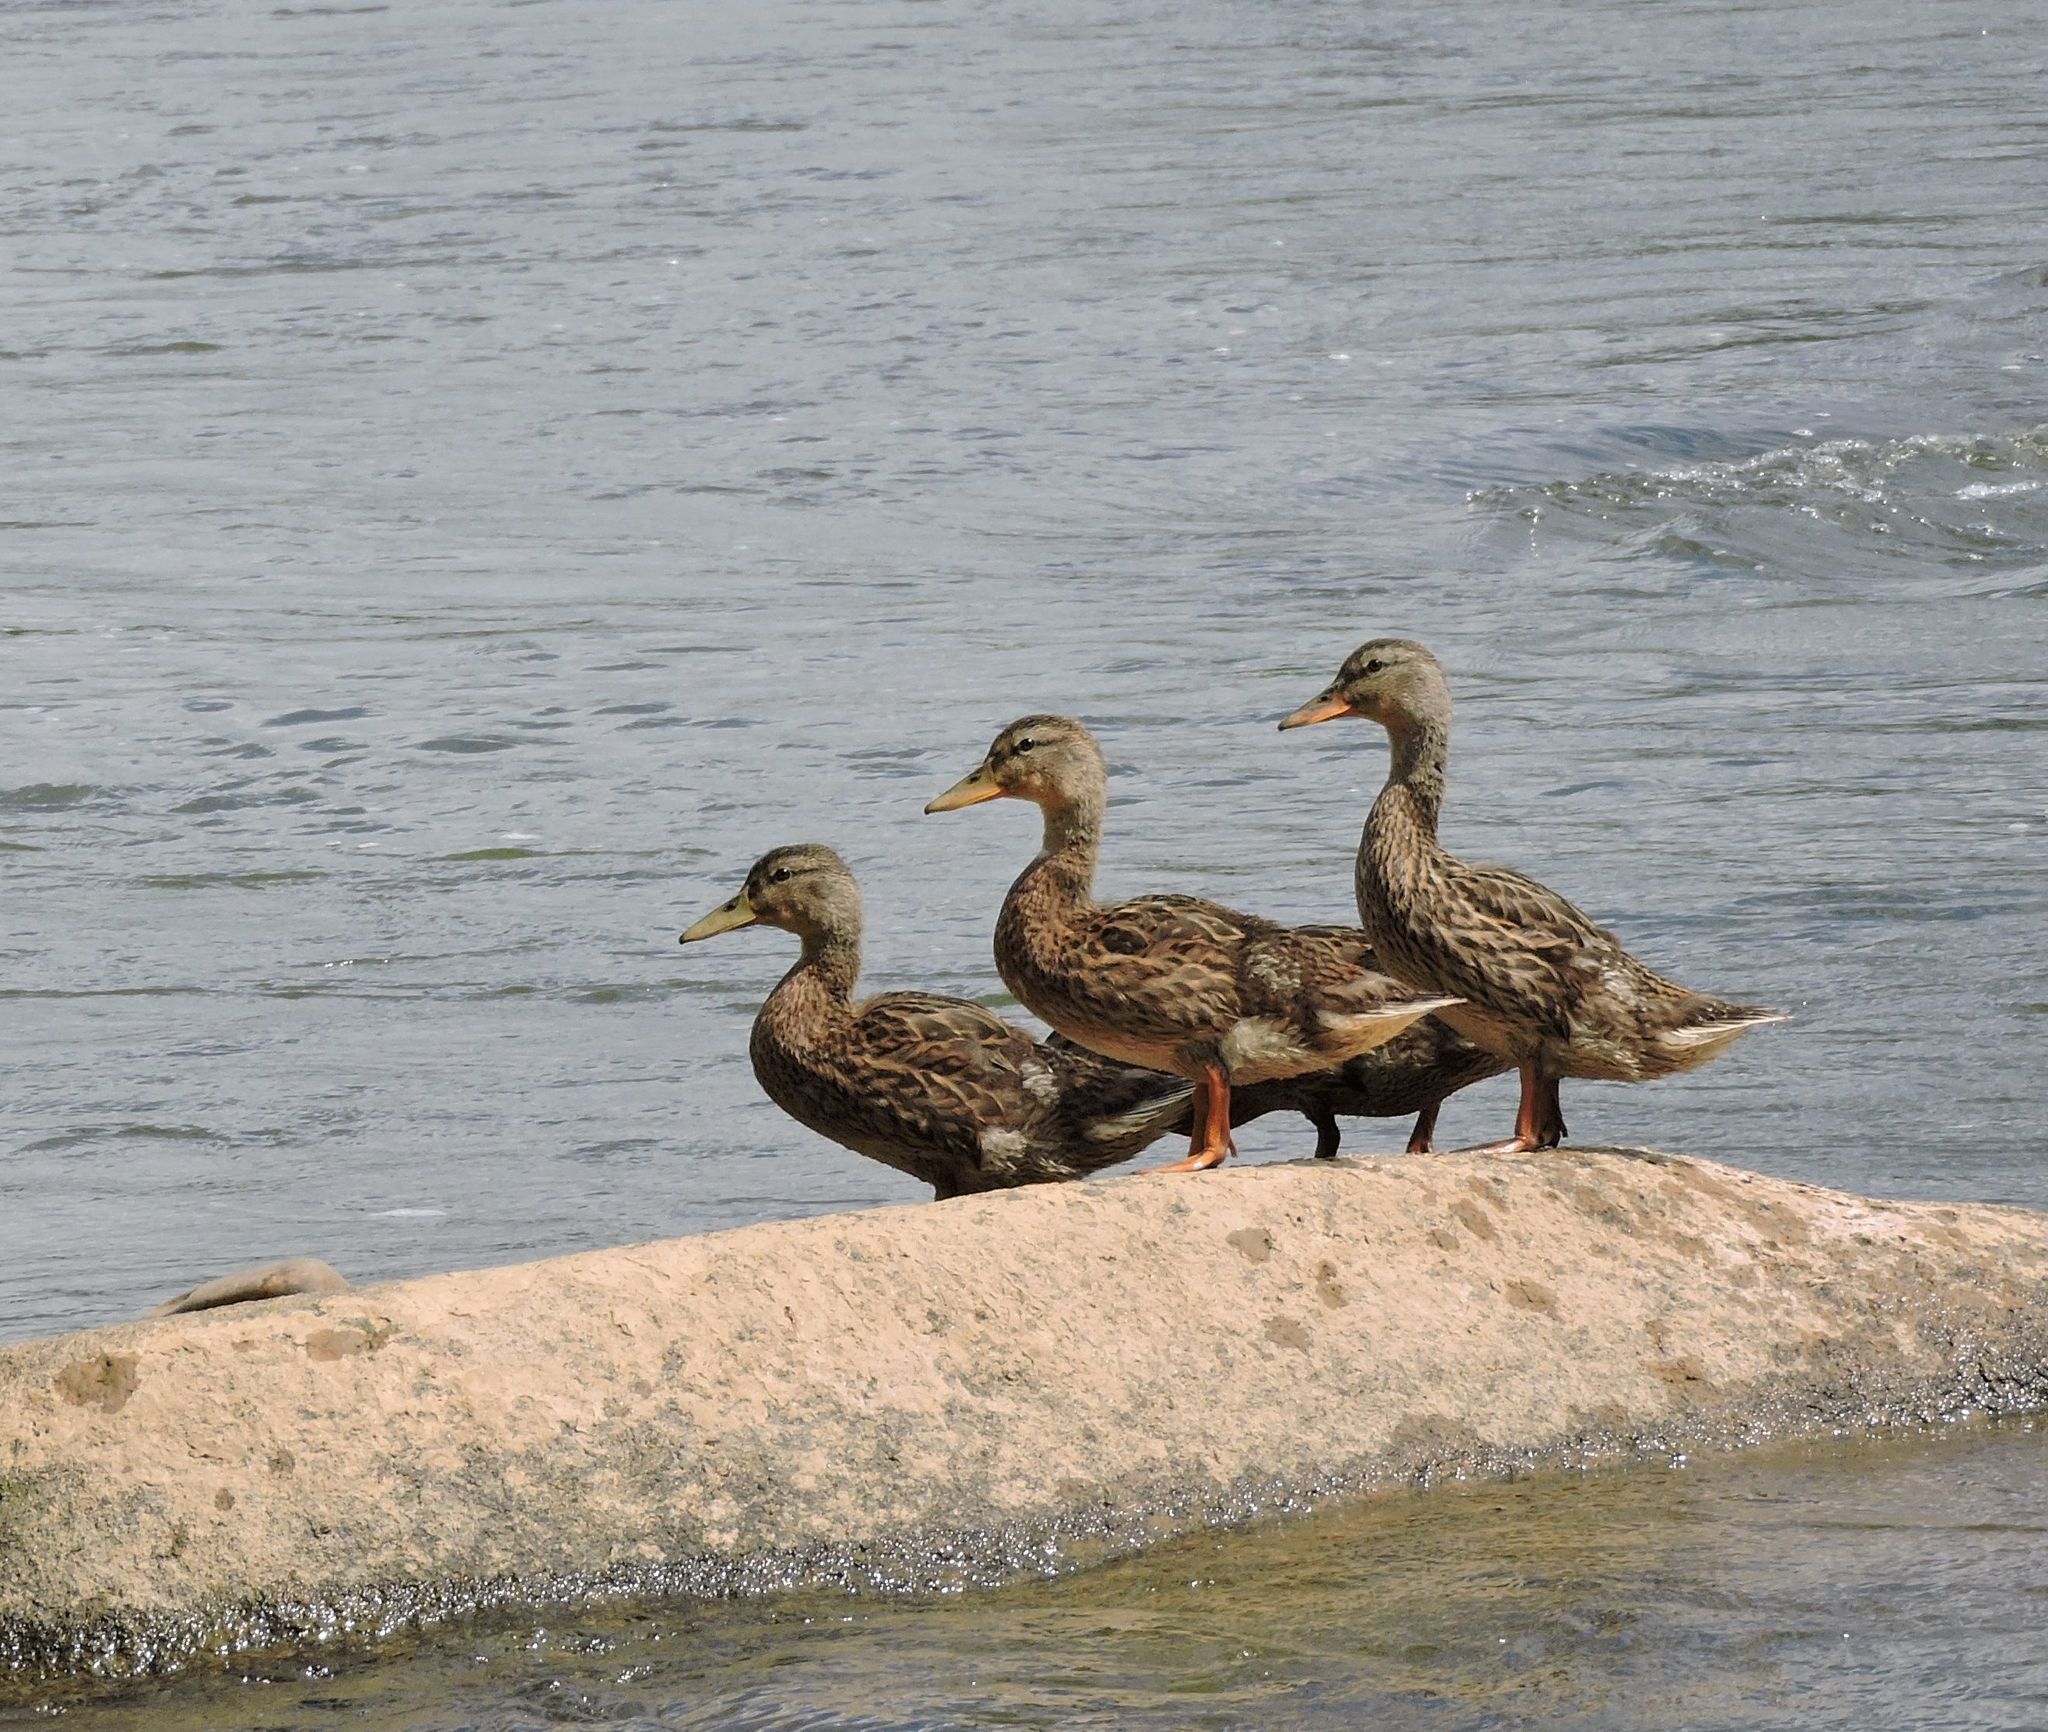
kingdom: Animalia
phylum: Chordata
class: Aves
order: Anseriformes
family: Anatidae
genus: Anas
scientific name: Anas platyrhynchos
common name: Mallard
